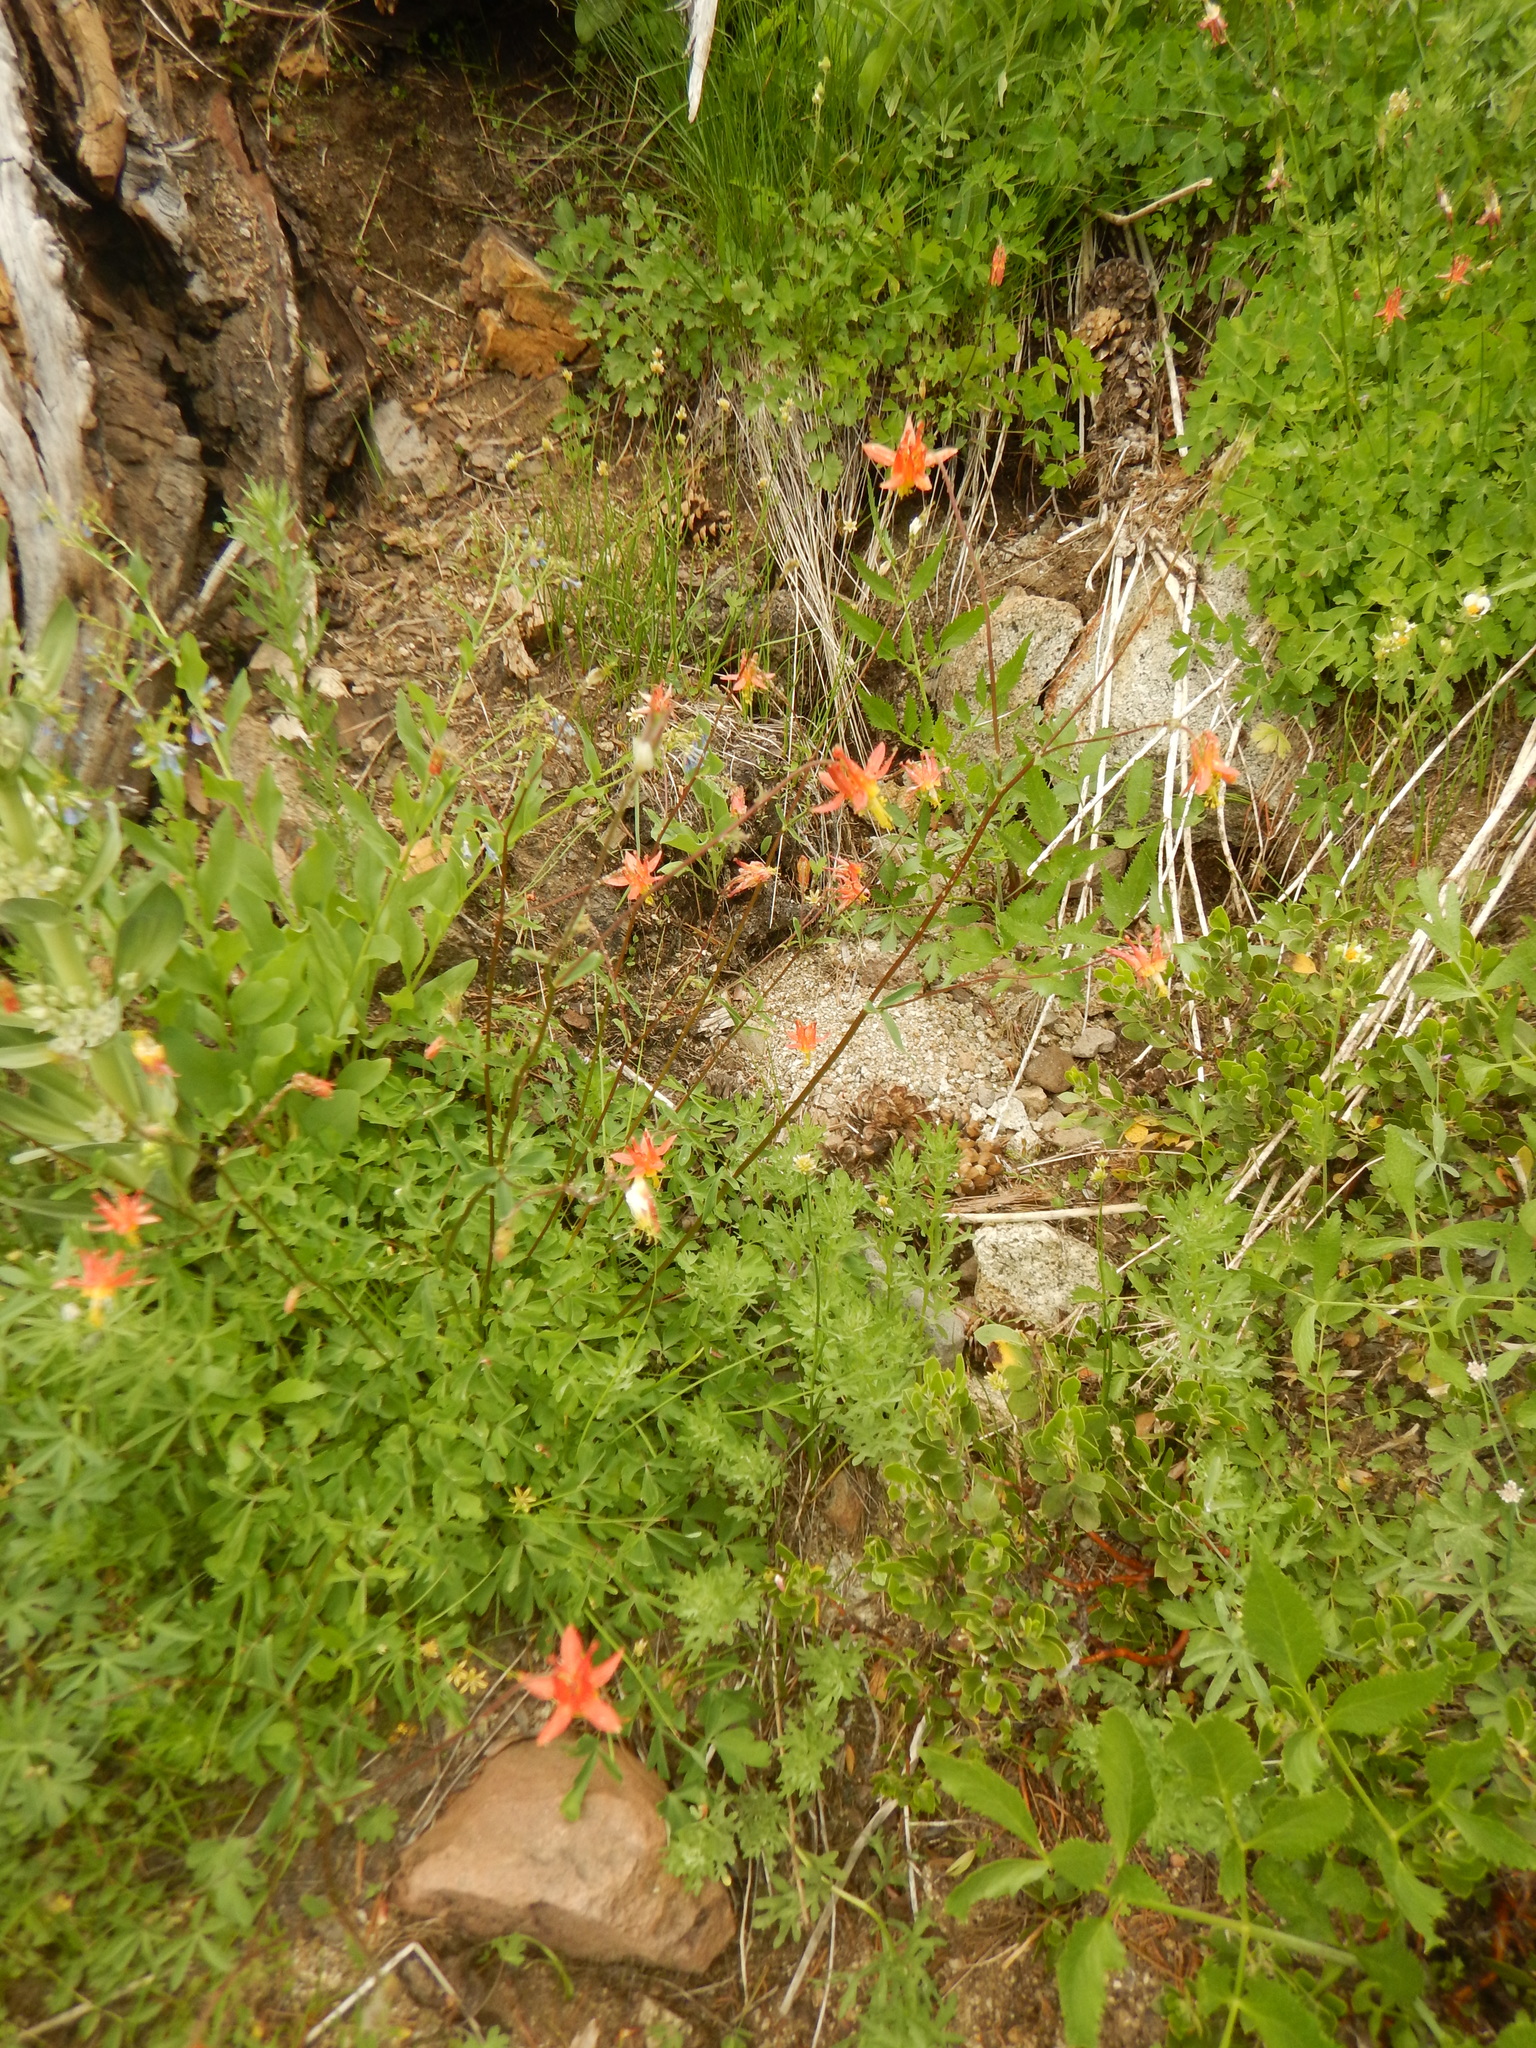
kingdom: Plantae
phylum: Tracheophyta
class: Magnoliopsida
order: Ranunculales
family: Ranunculaceae
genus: Aquilegia
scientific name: Aquilegia formosa
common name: Sitka columbine
